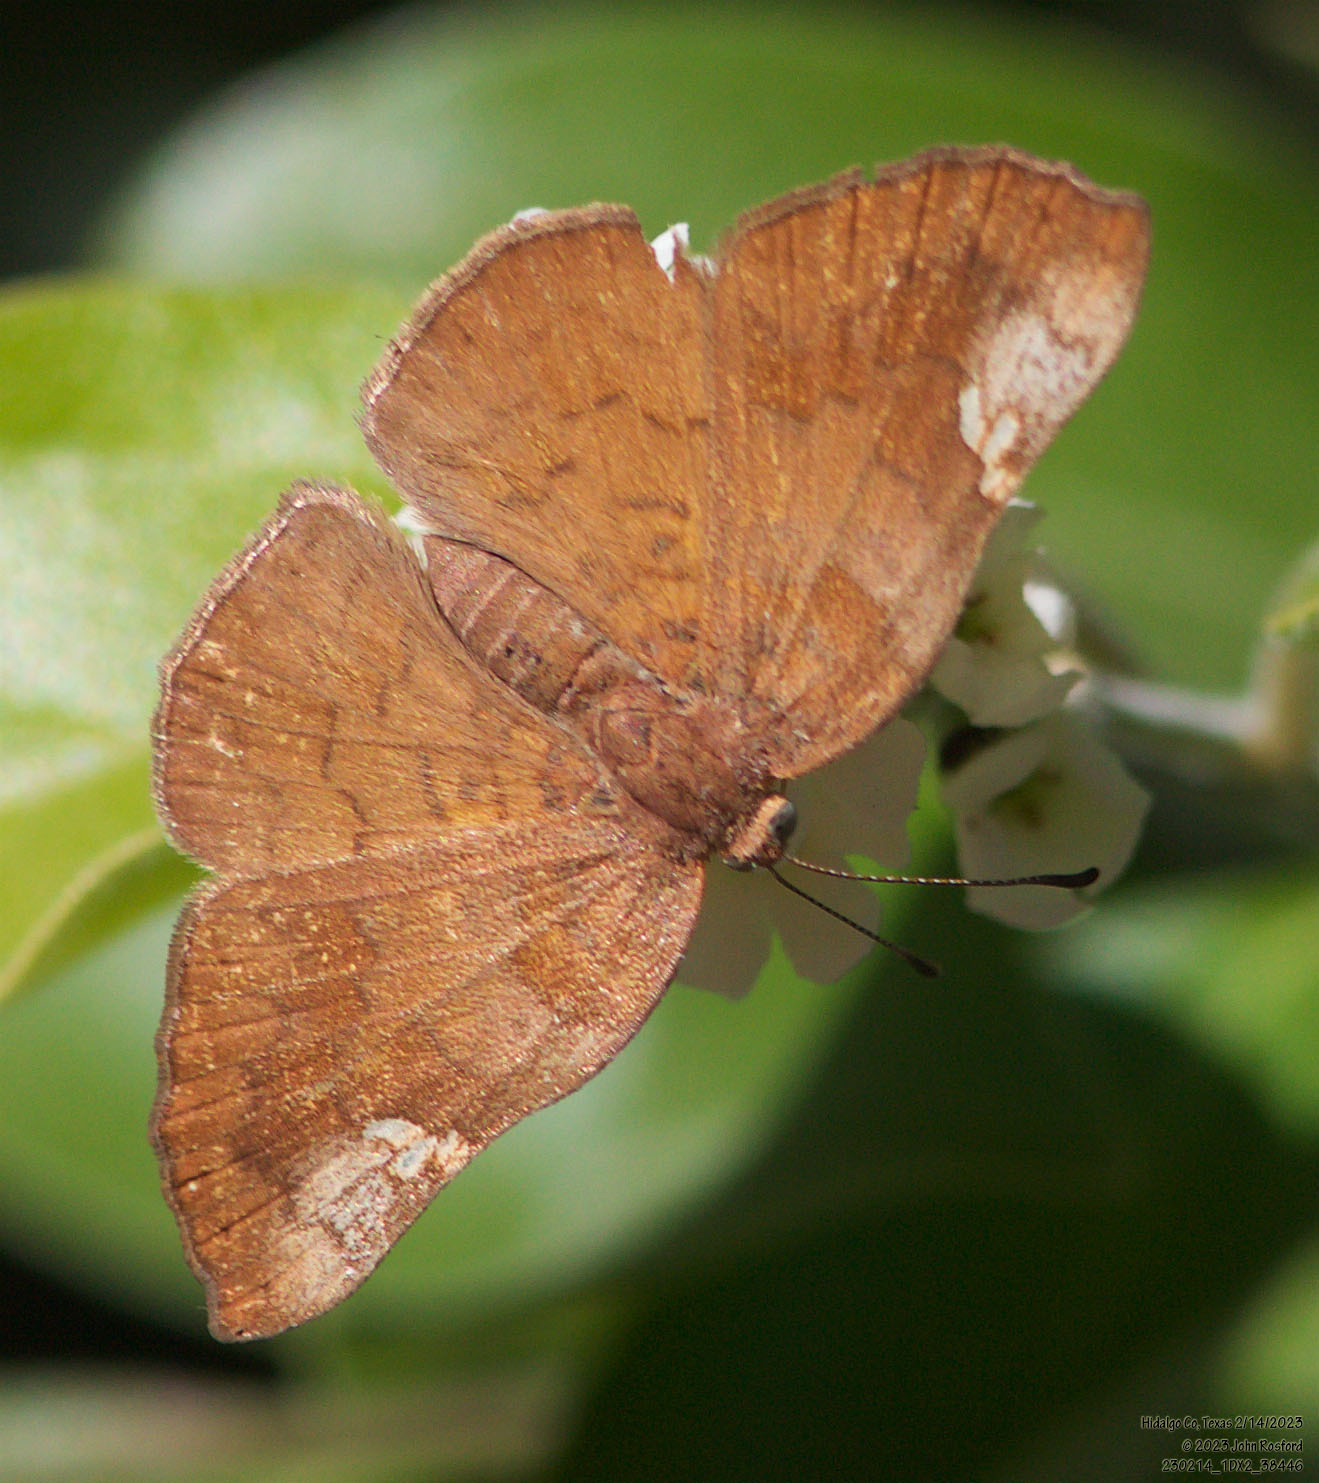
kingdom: Animalia
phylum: Arthropoda
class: Insecta
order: Lepidoptera
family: Riodinidae
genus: Curvie
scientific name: Curvie emesia
